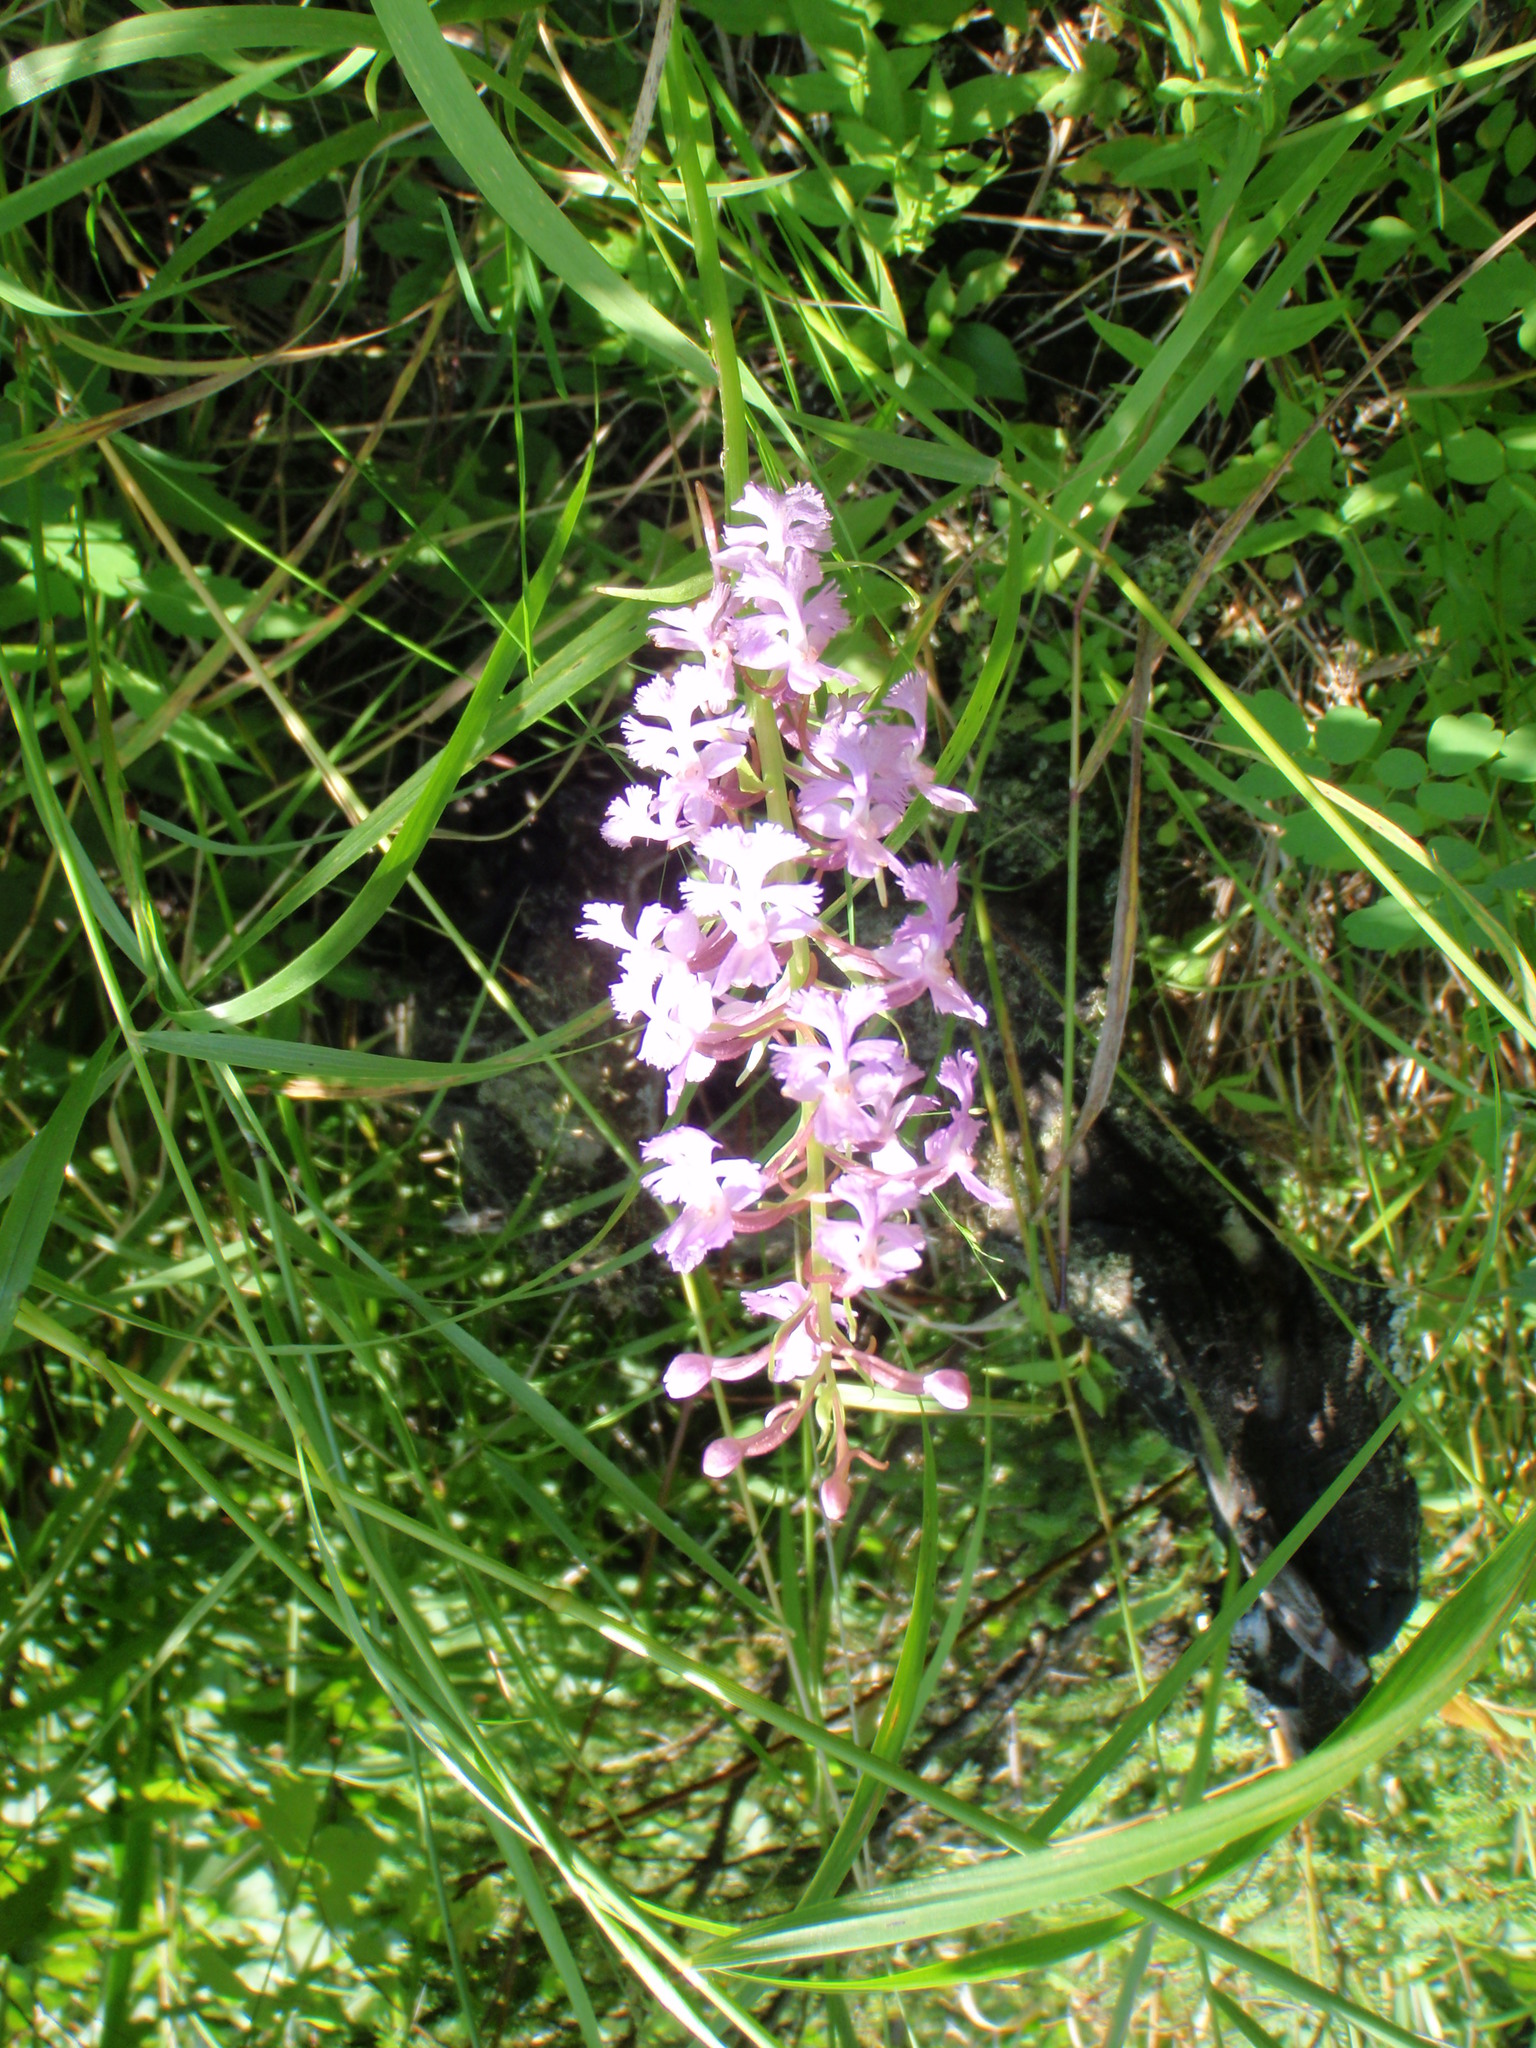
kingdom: Plantae
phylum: Tracheophyta
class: Liliopsida
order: Asparagales
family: Orchidaceae
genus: Platanthera
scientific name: Platanthera psycodes
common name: Lesser purple fringed orchid
